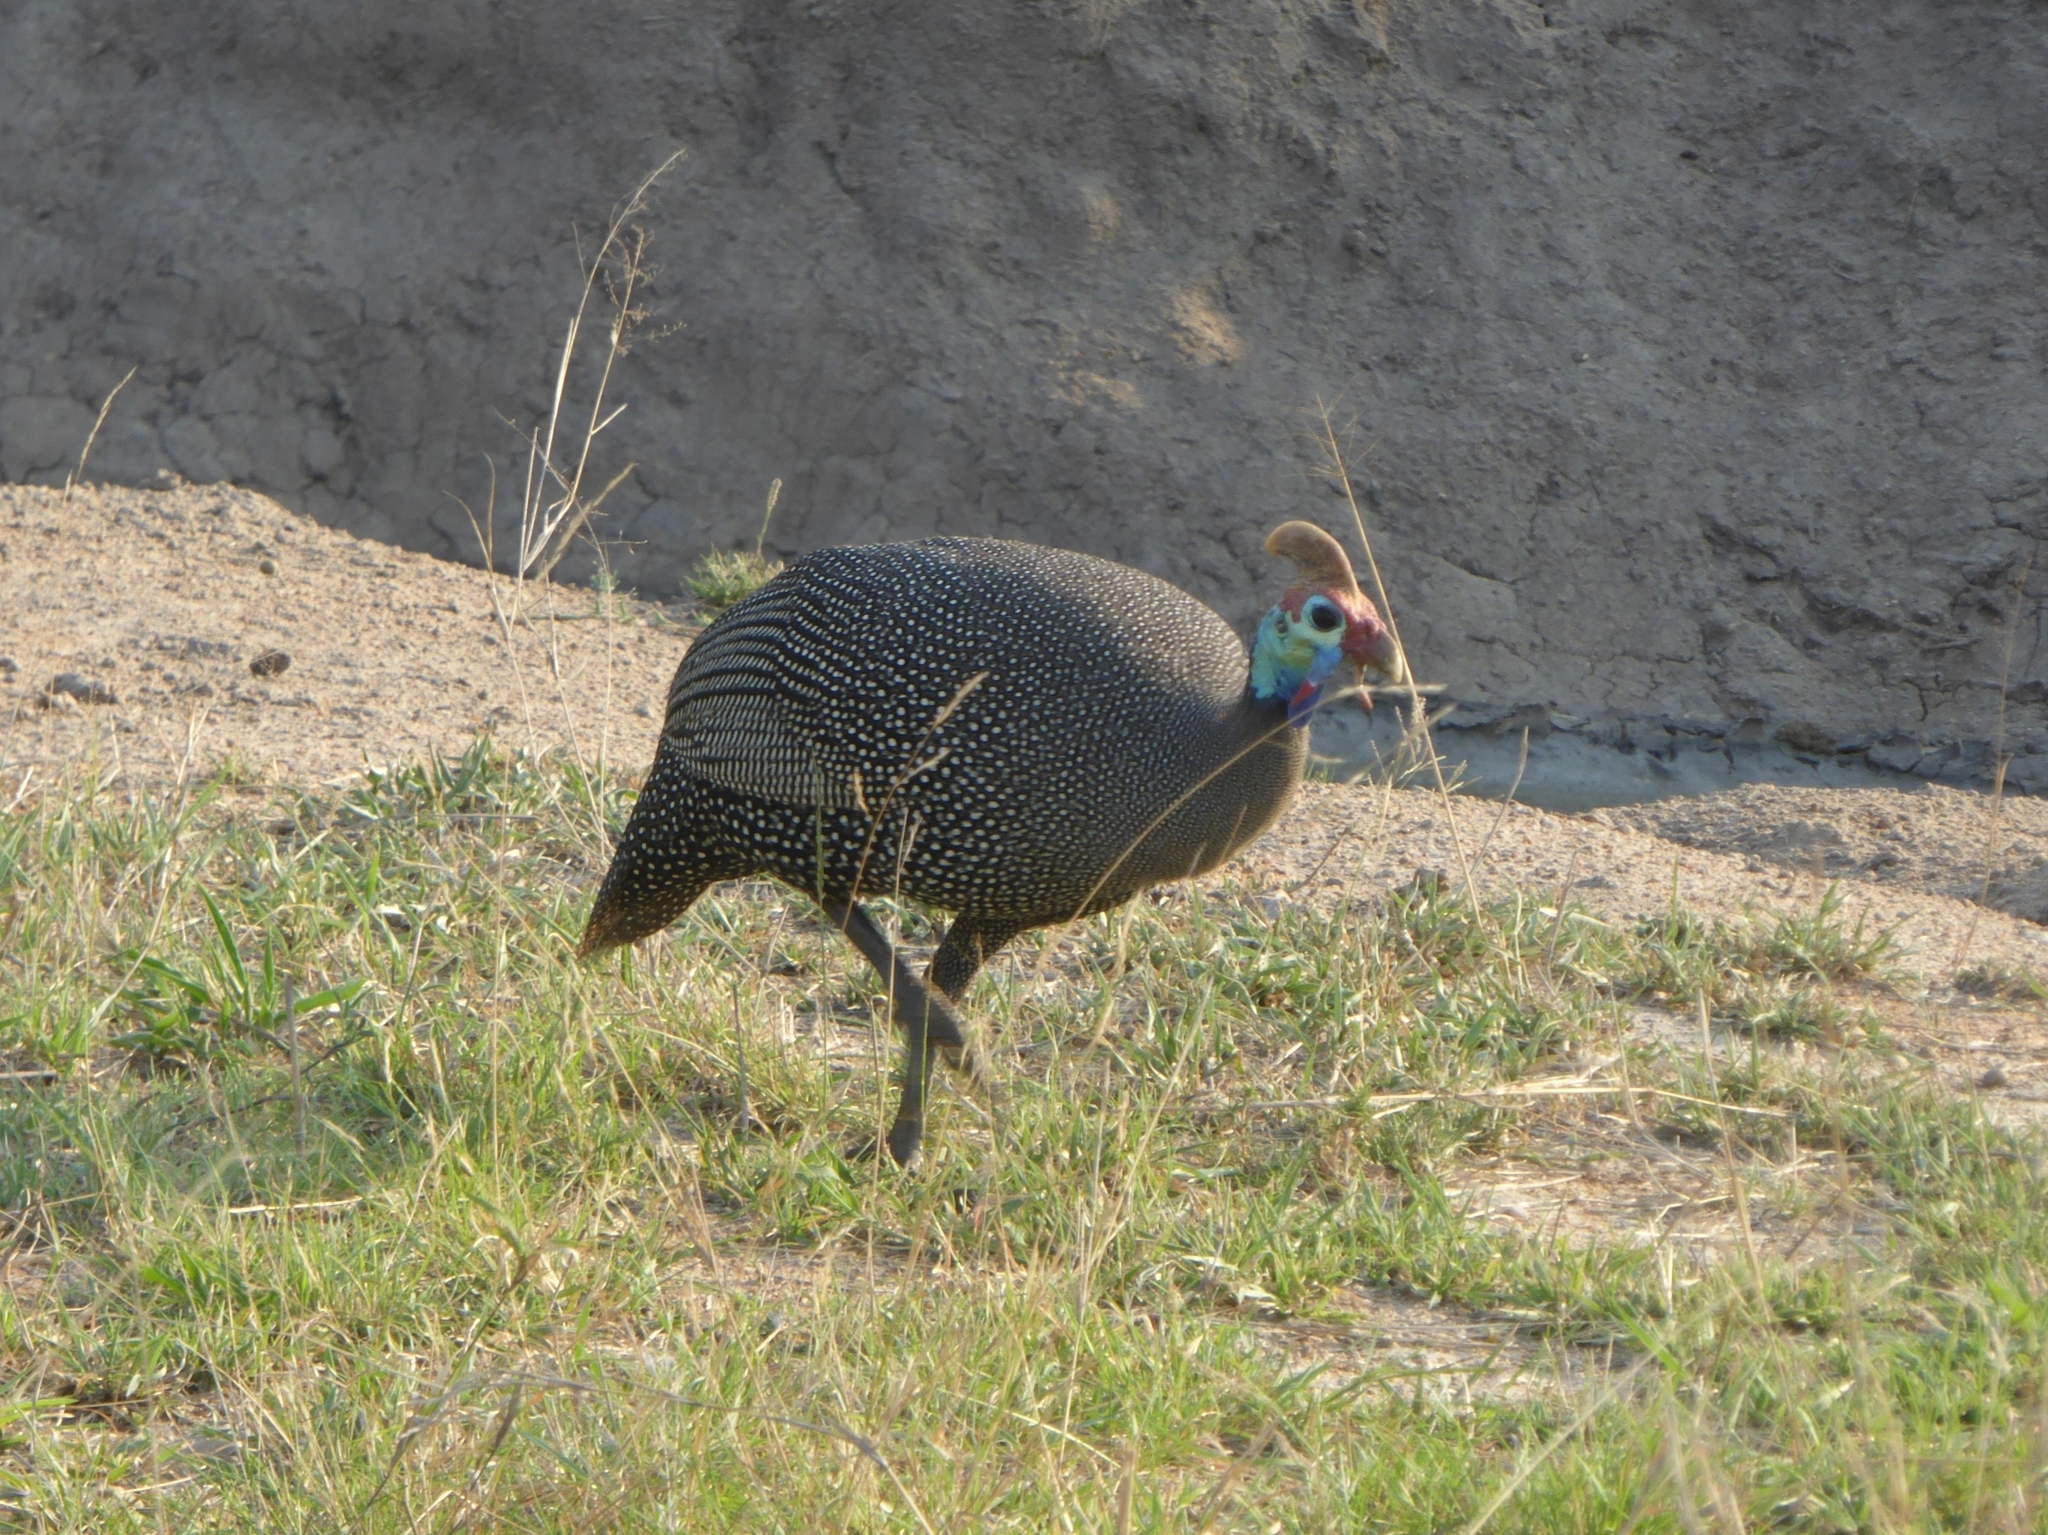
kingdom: Animalia
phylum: Chordata
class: Aves
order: Galliformes
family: Numididae
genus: Numida
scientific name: Numida meleagris
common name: Helmeted guineafowl
